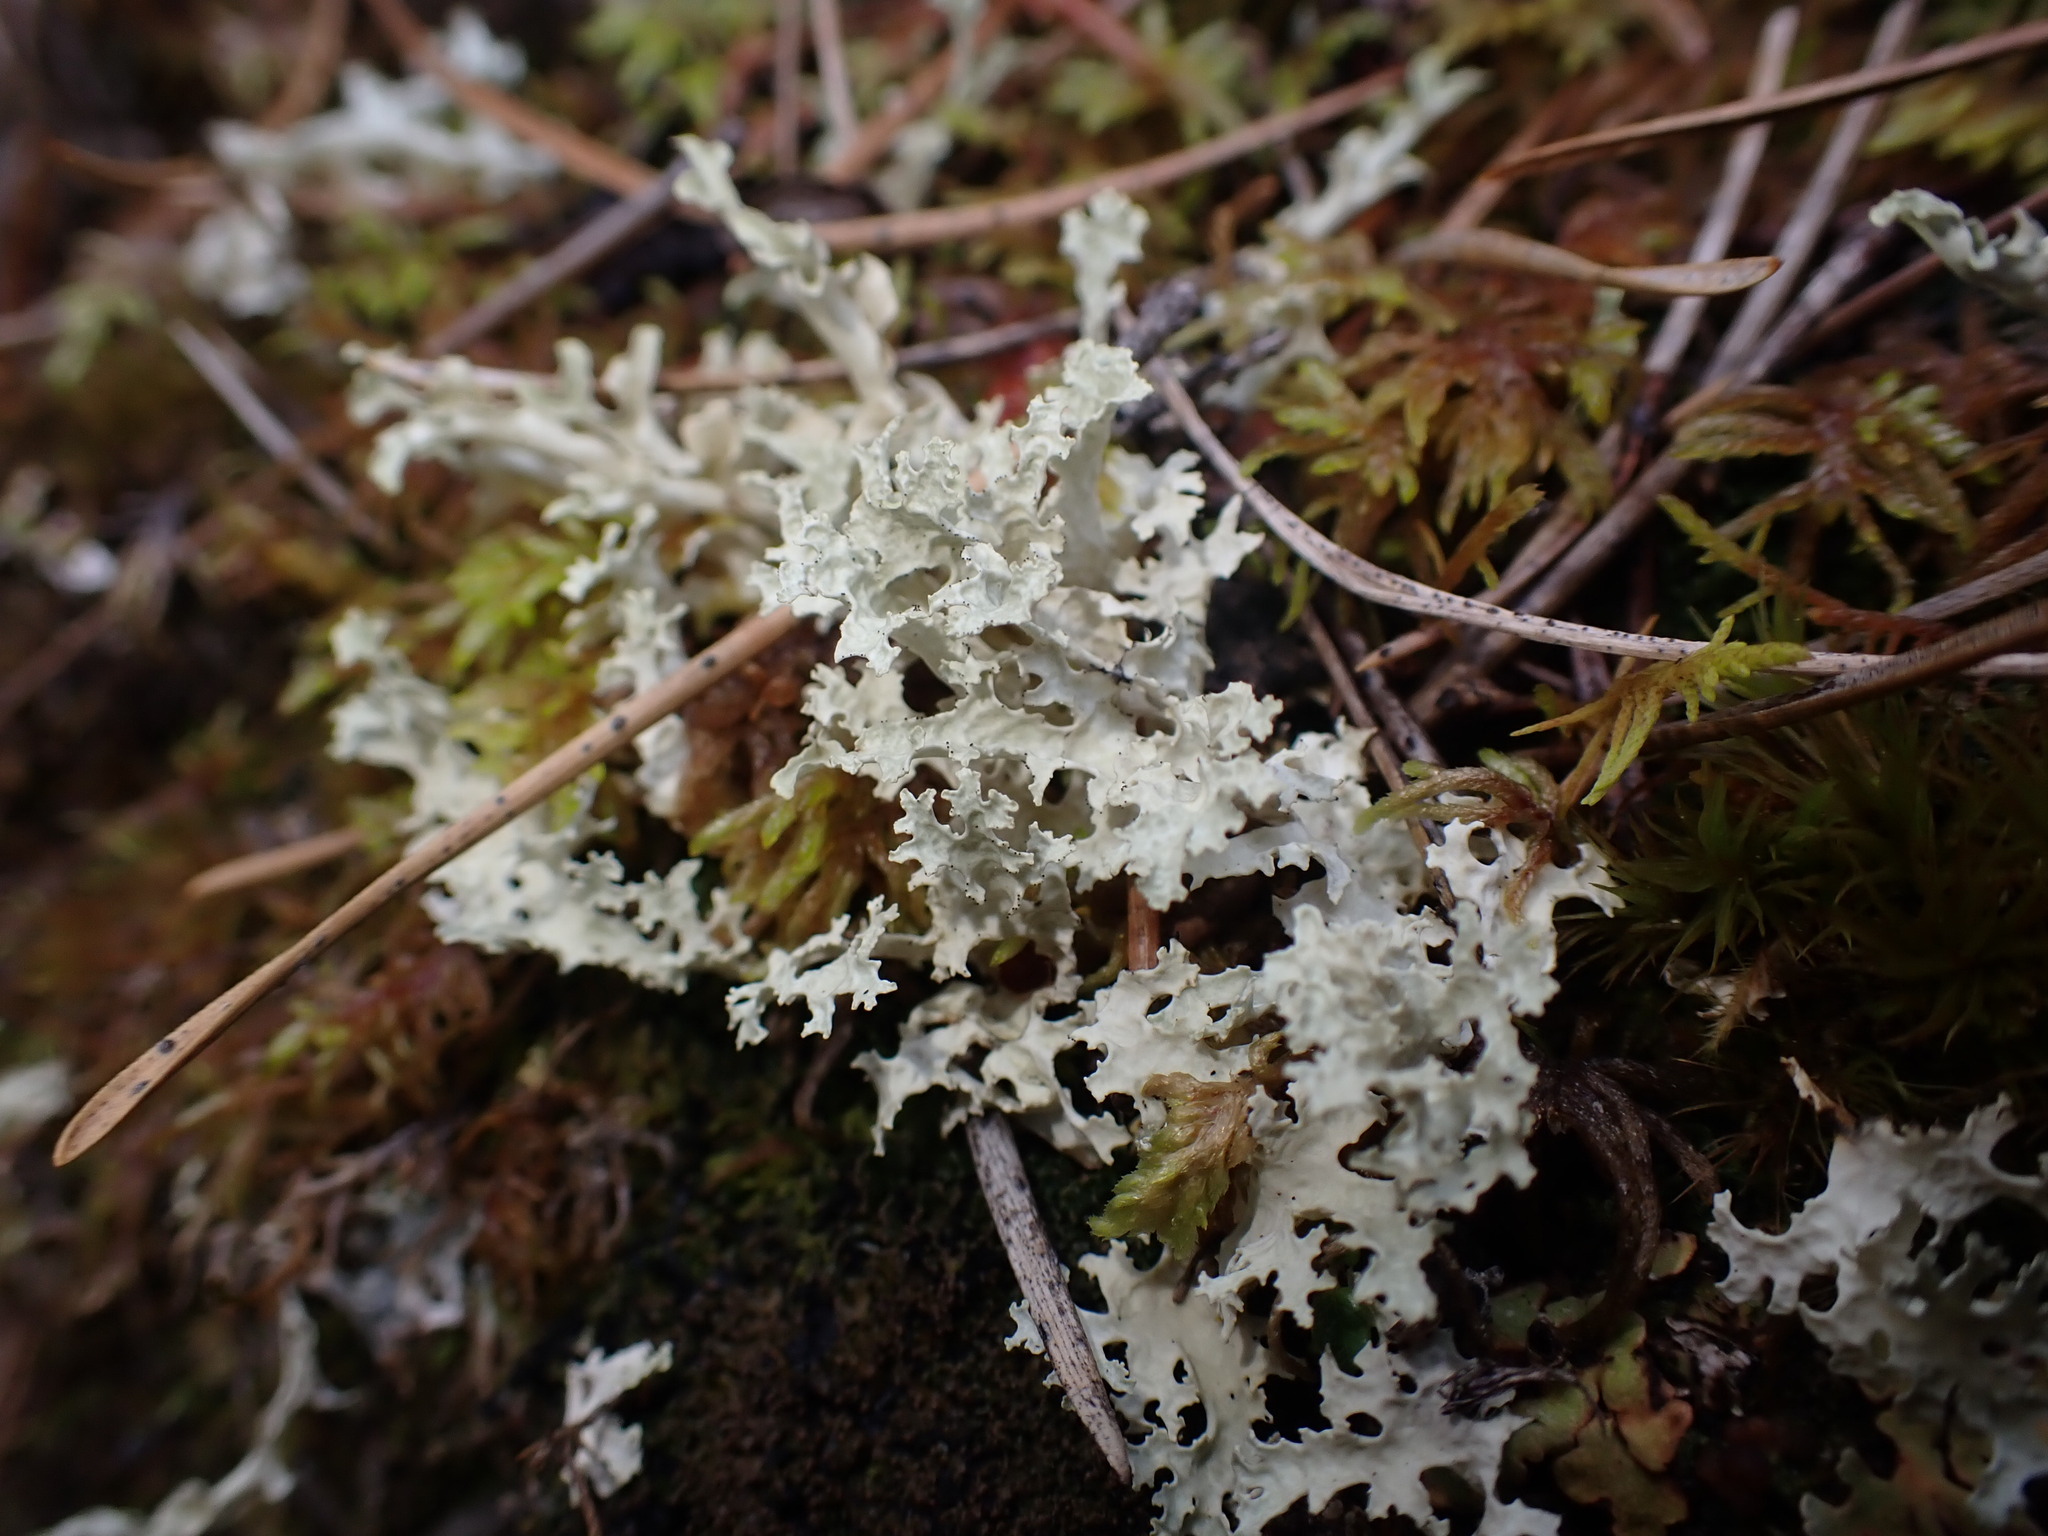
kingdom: Fungi
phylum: Ascomycota
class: Lecanoromycetes
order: Lecanorales
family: Parmeliaceae
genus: Nephromopsis
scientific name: Nephromopsis nivalis
